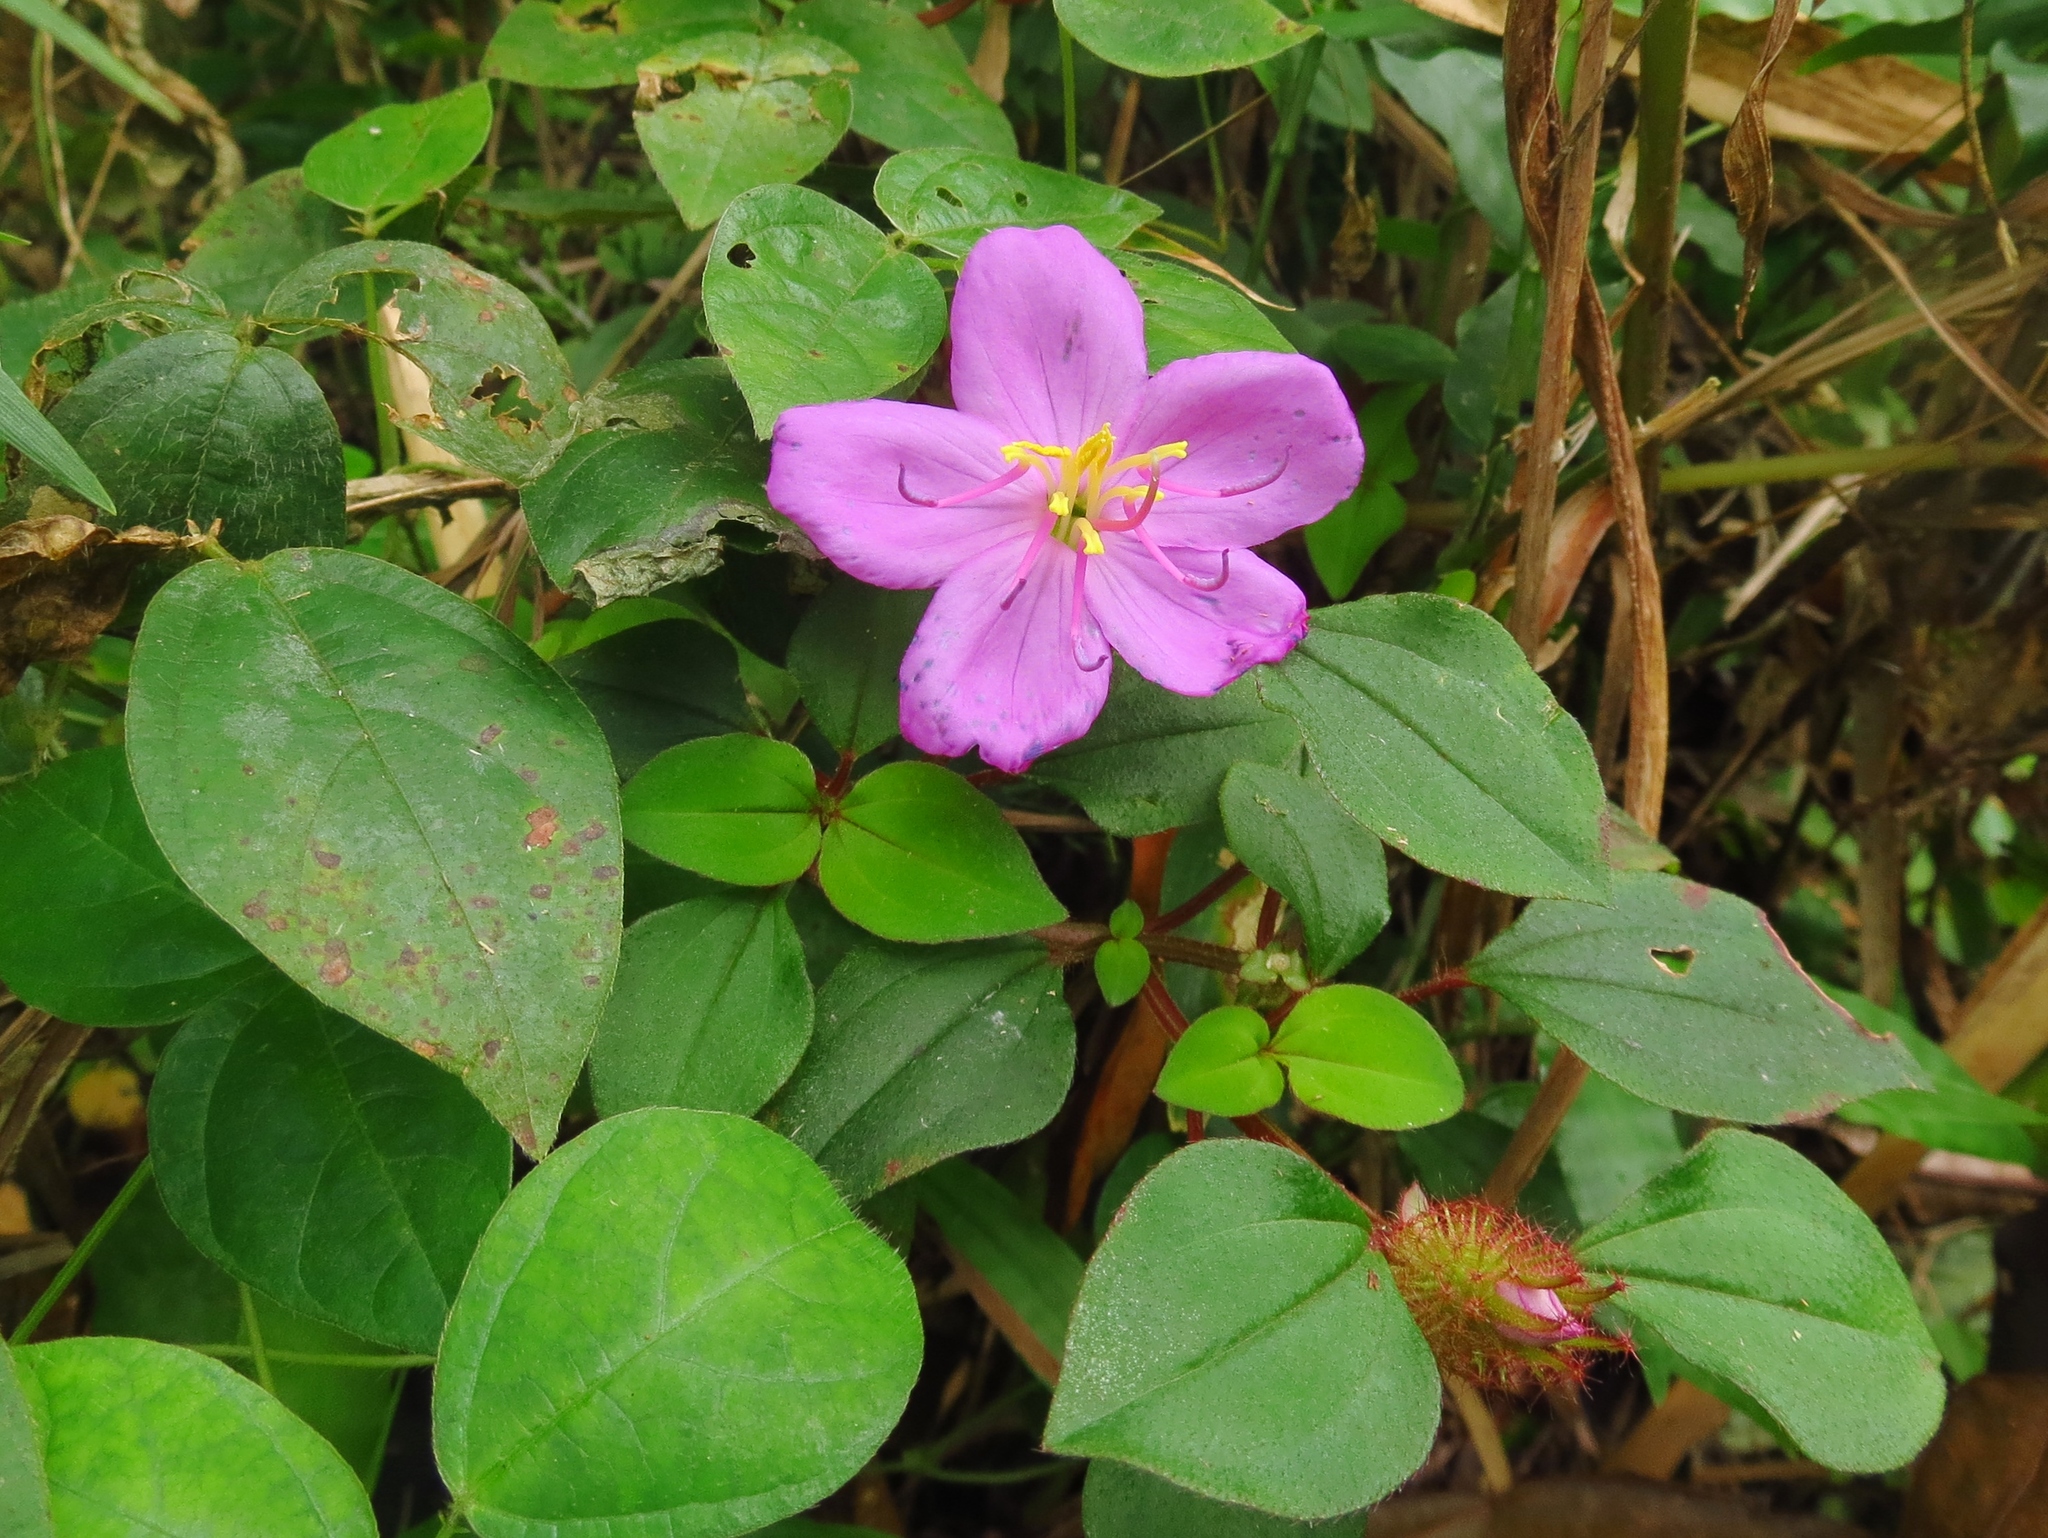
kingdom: Plantae
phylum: Tracheophyta
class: Magnoliopsida
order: Myrtales
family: Melastomataceae
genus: Heterotis
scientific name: Heterotis rotundifolia
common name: Pinklady
